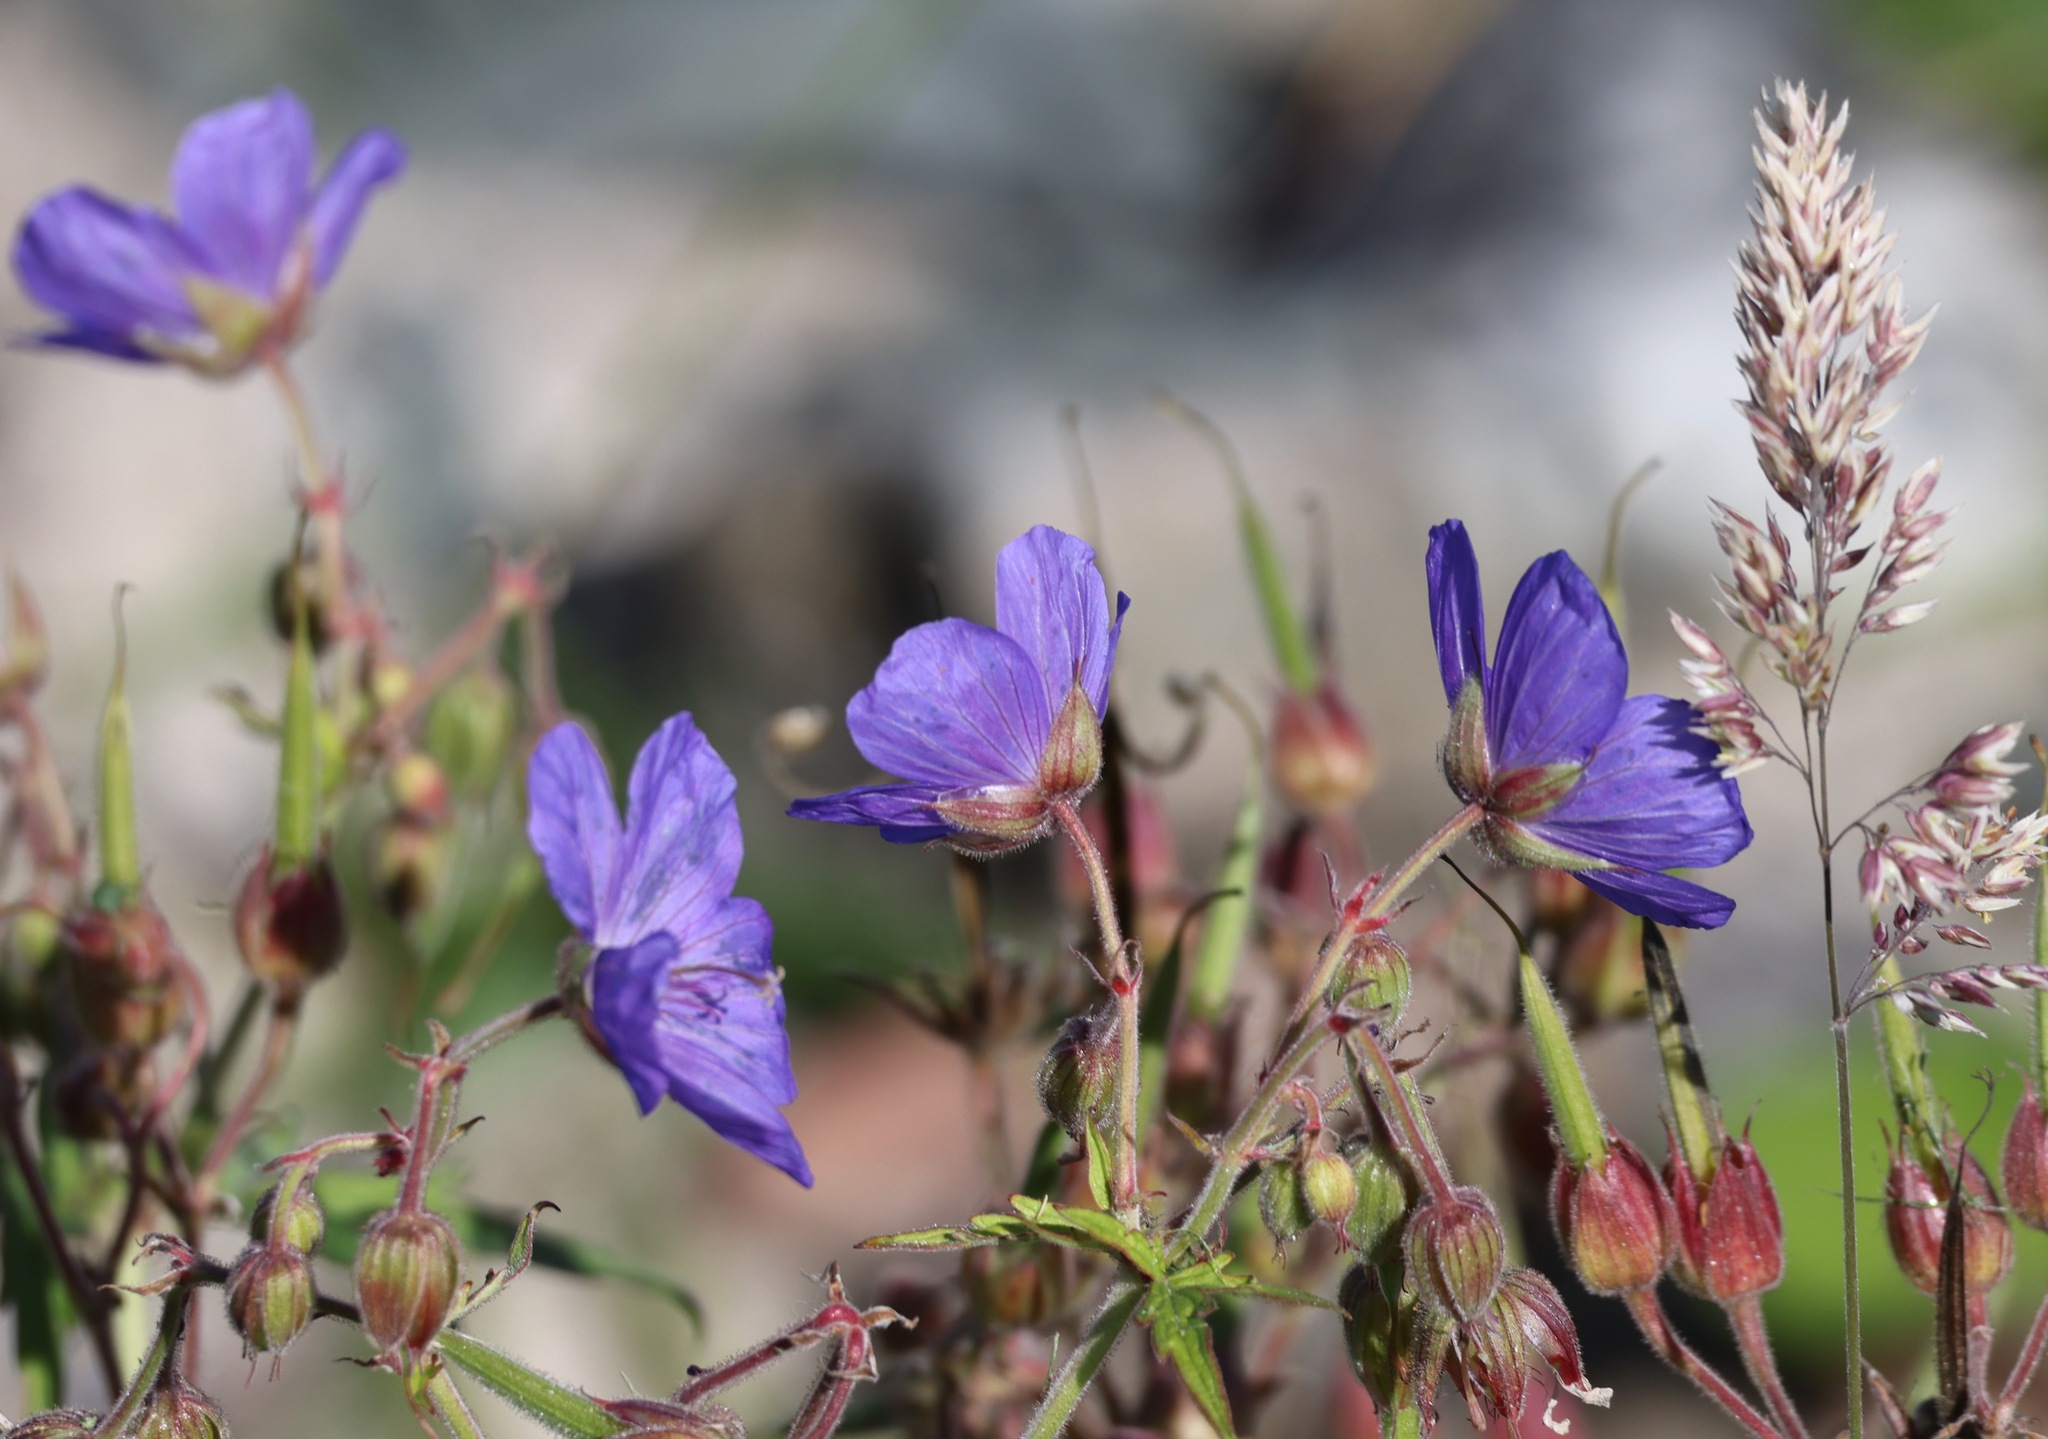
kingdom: Plantae
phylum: Tracheophyta
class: Magnoliopsida
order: Geraniales
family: Geraniaceae
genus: Geranium
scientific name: Geranium pratense
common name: Meadow crane's-bill
